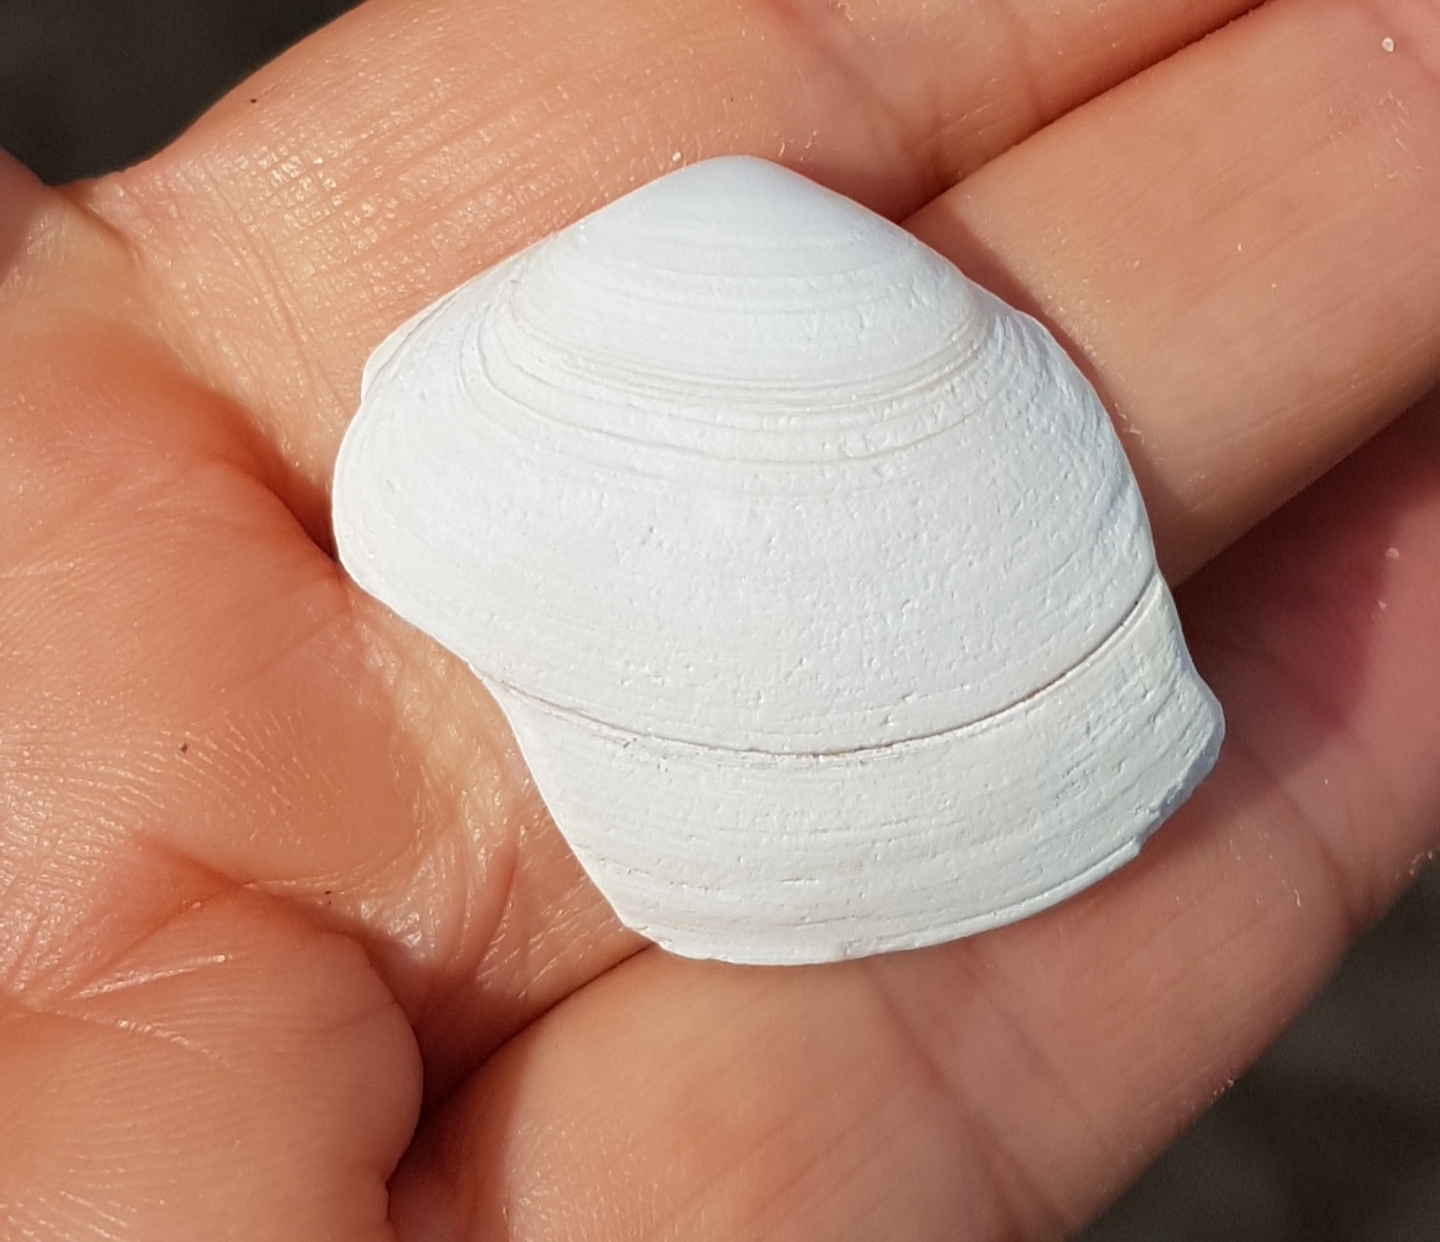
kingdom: Animalia
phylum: Mollusca
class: Bivalvia
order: Venerida
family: Mactridae
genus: Spisula
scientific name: Spisula solida
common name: Thick trough shell
